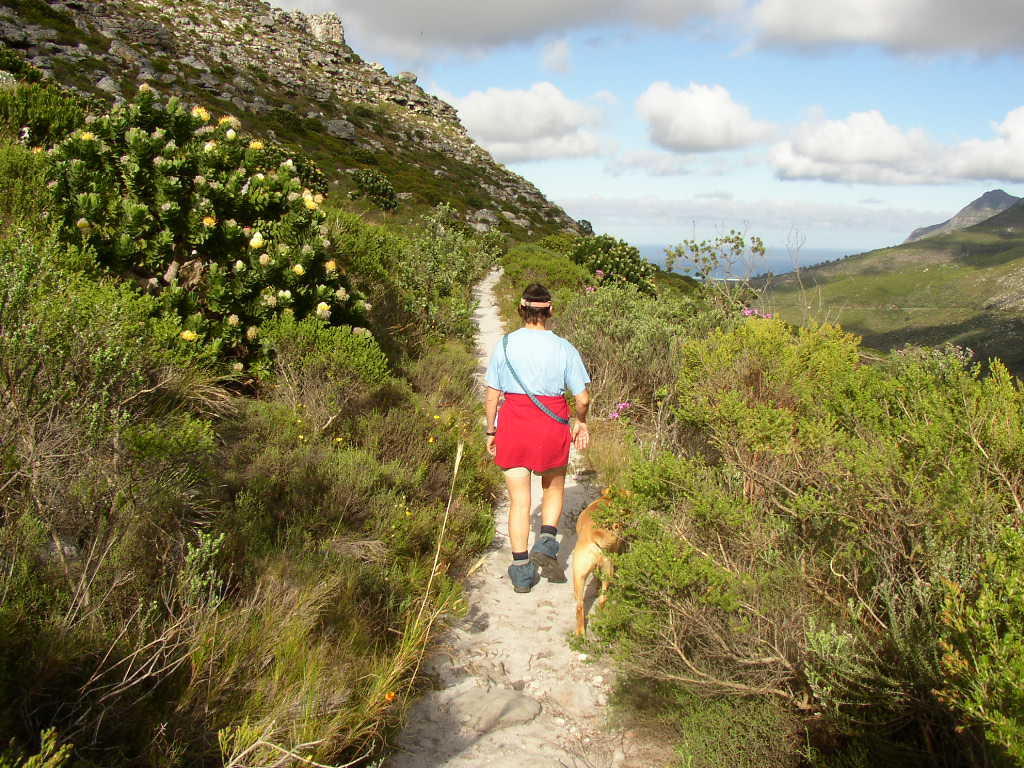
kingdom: Plantae
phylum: Tracheophyta
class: Magnoliopsida
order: Proteales
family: Proteaceae
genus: Leucospermum
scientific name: Leucospermum conocarpodendron
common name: Tree pincushion
